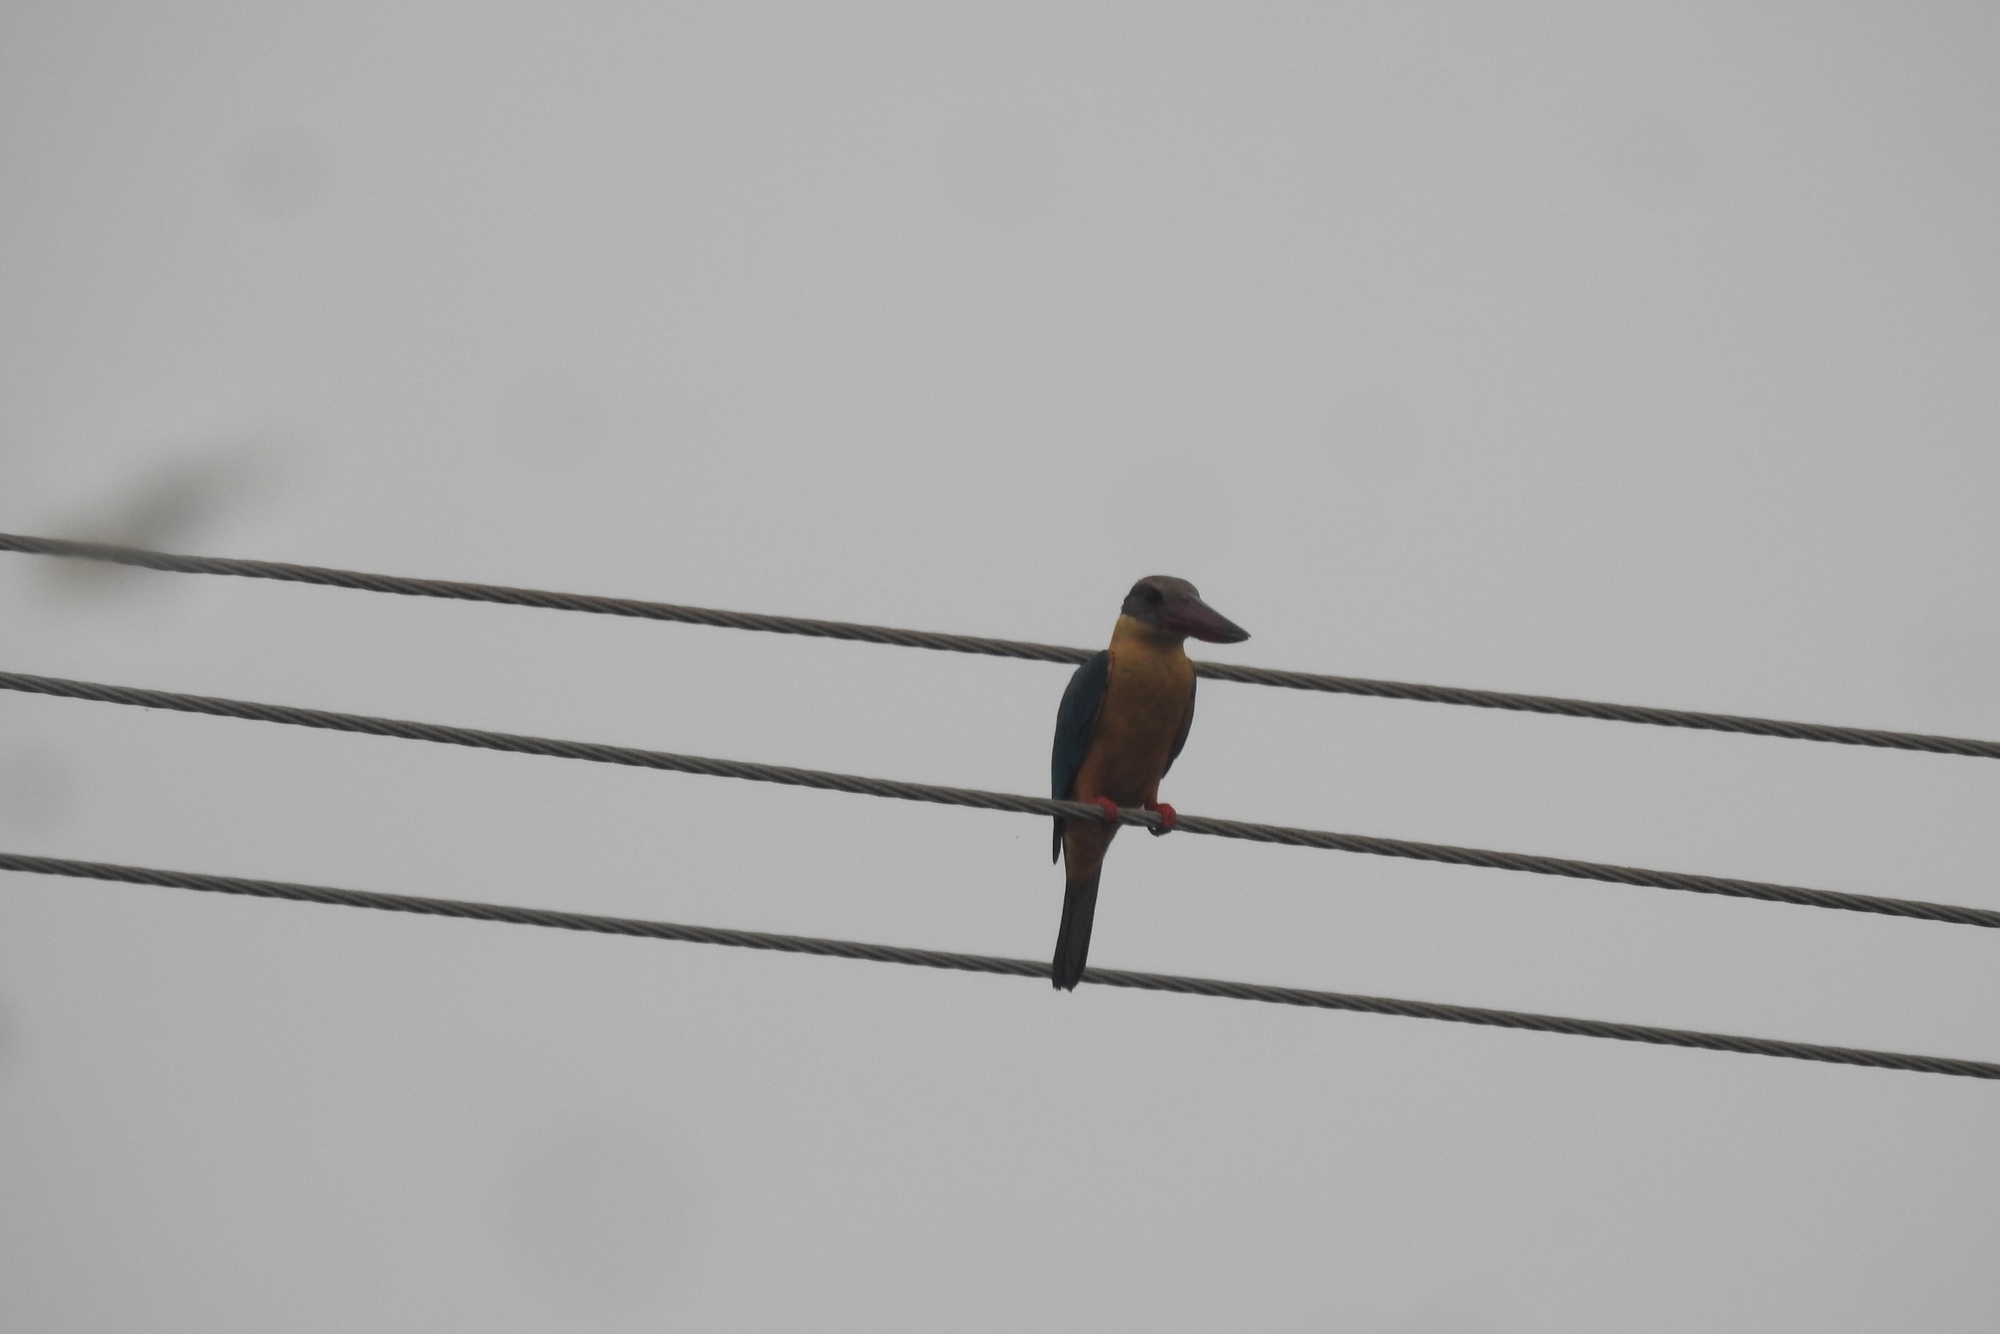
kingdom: Animalia
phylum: Chordata
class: Aves
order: Coraciiformes
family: Alcedinidae
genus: Pelargopsis
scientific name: Pelargopsis capensis
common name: Stork-billed kingfisher
